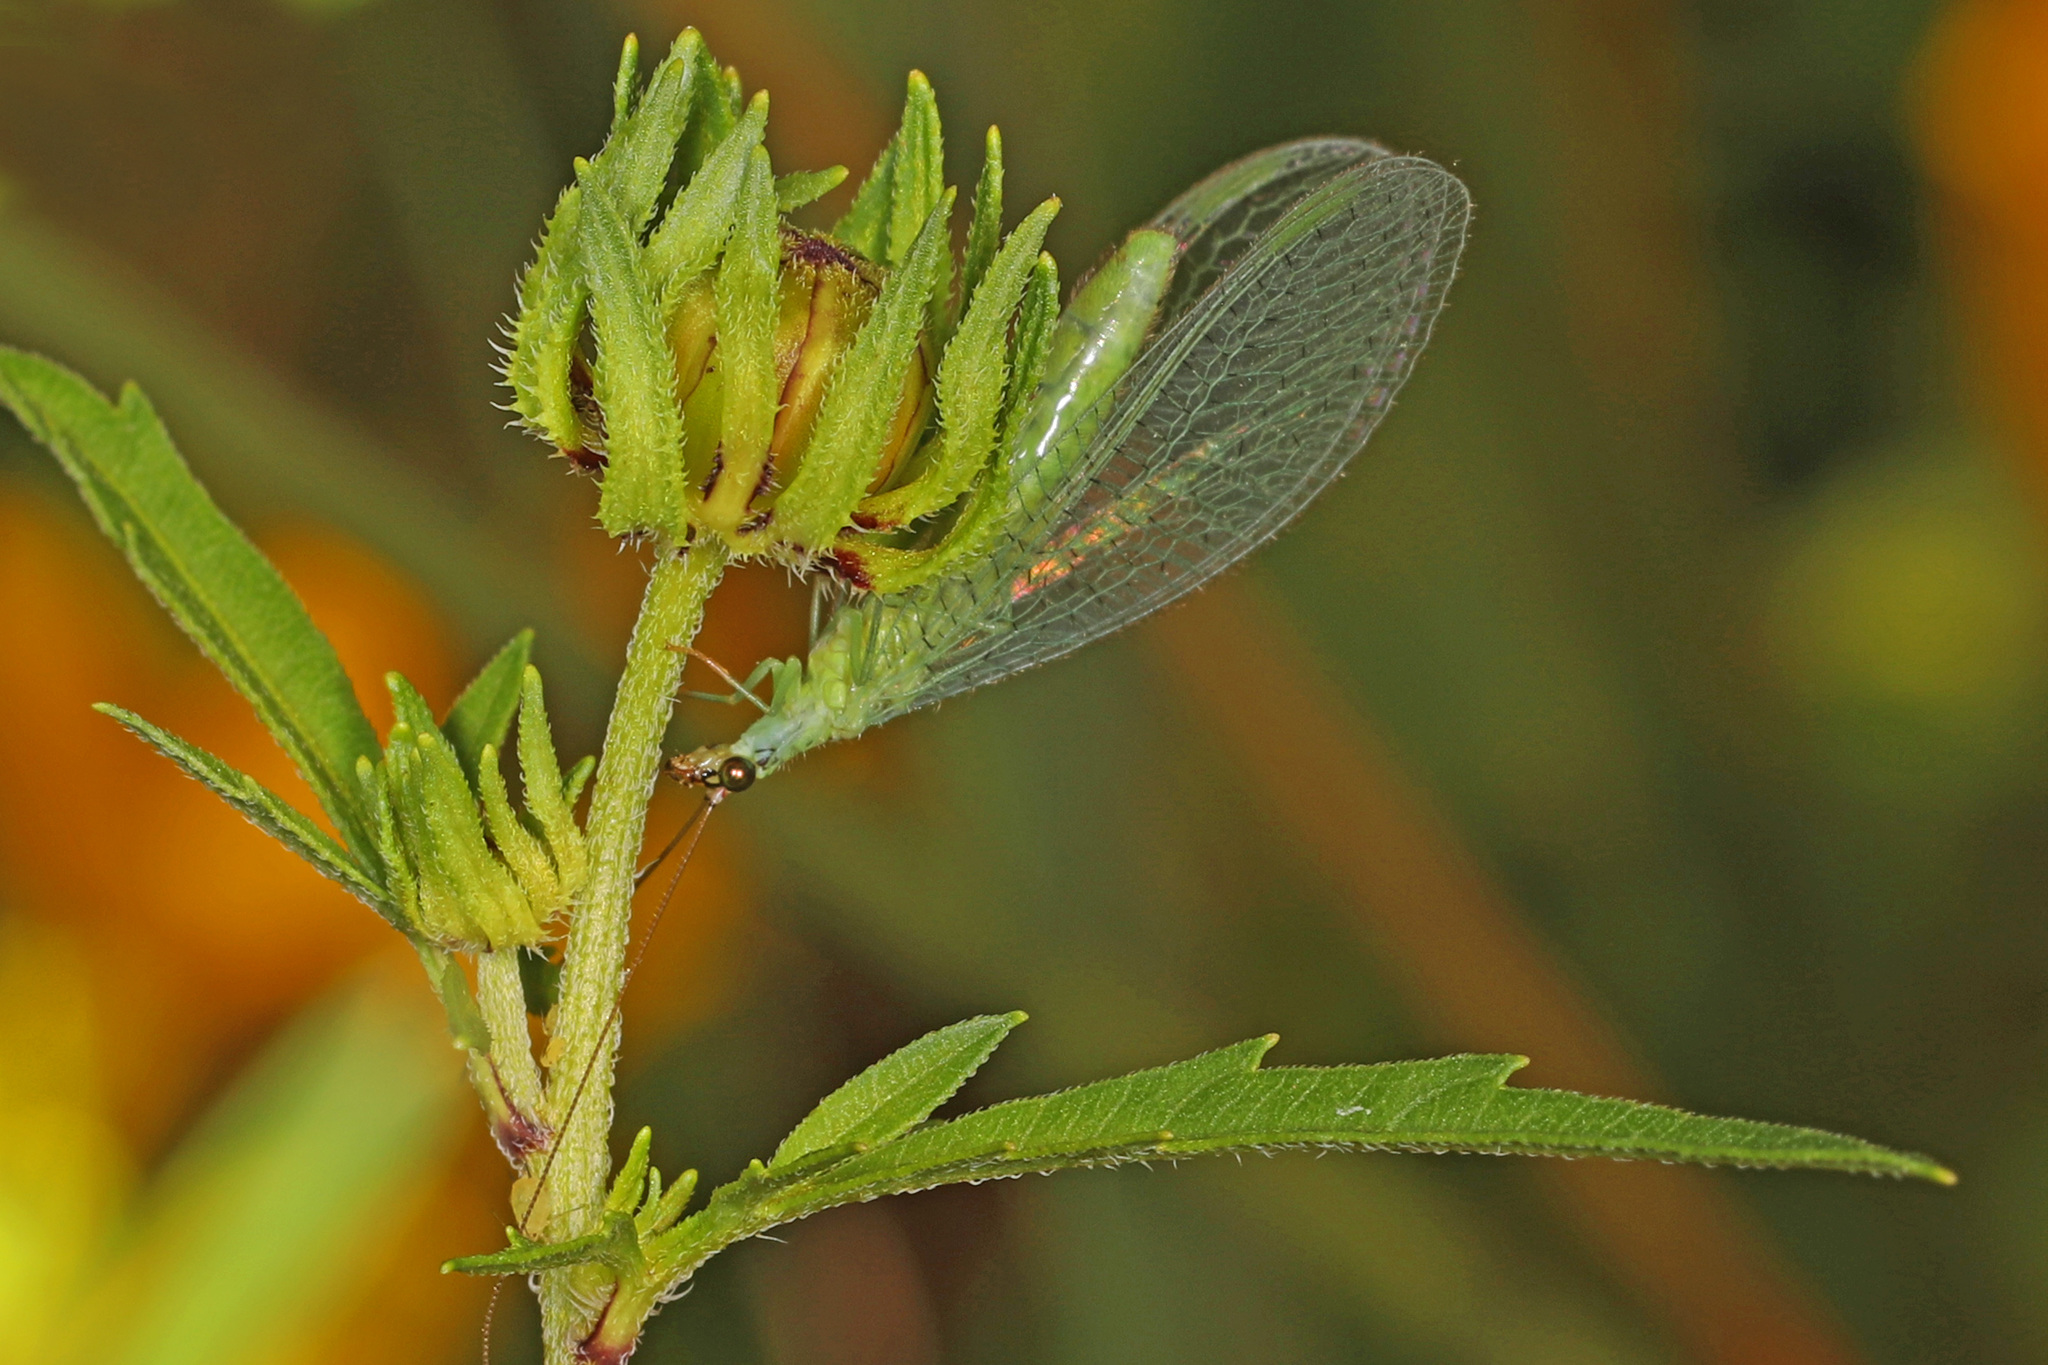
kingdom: Animalia
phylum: Arthropoda
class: Insecta
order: Neuroptera
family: Chrysopidae
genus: Chrysopa
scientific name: Chrysopa oculata
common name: Golden-eyed lacewing
